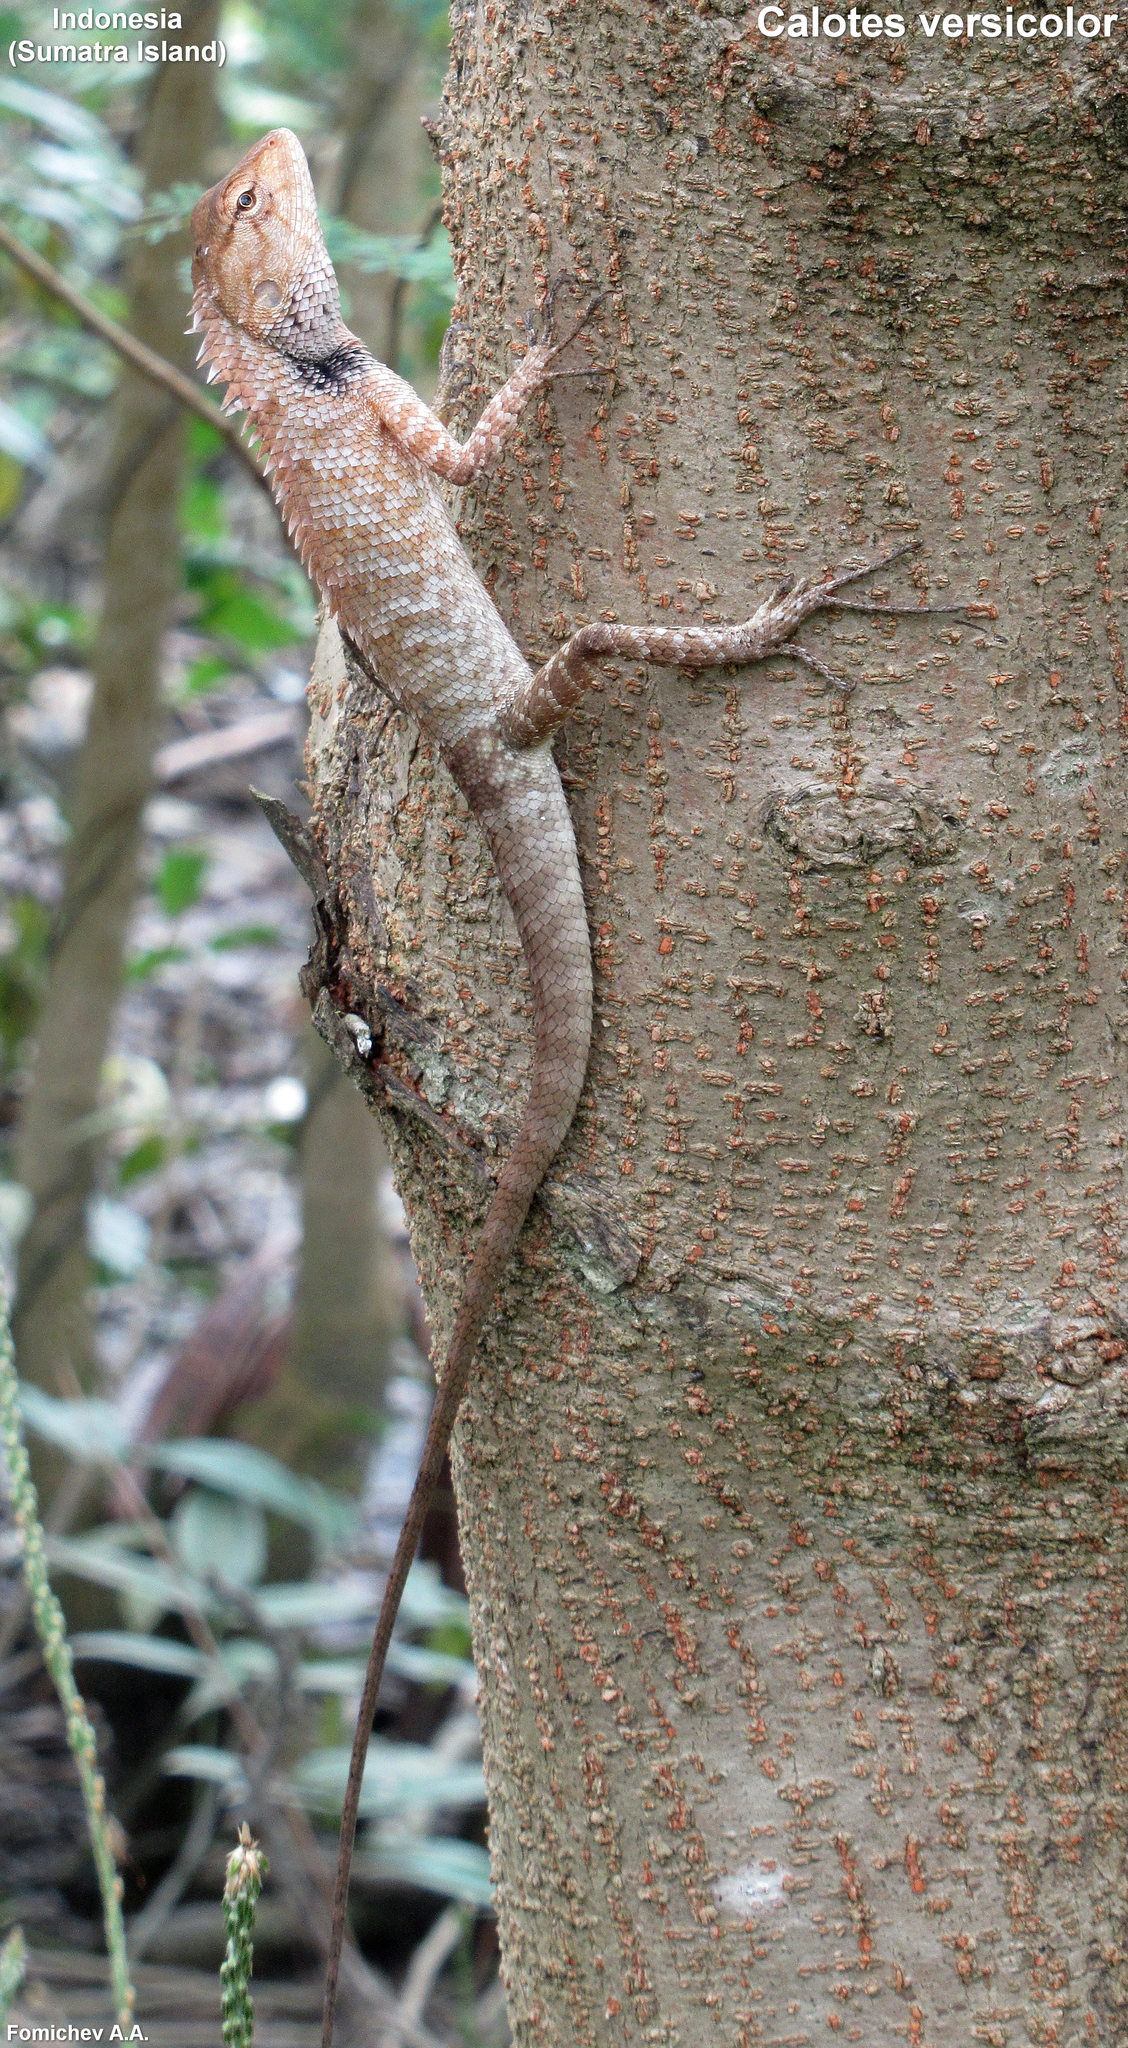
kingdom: Animalia
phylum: Chordata
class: Squamata
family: Agamidae
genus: Calotes
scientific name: Calotes versicolor
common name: Oriental garden lizard
